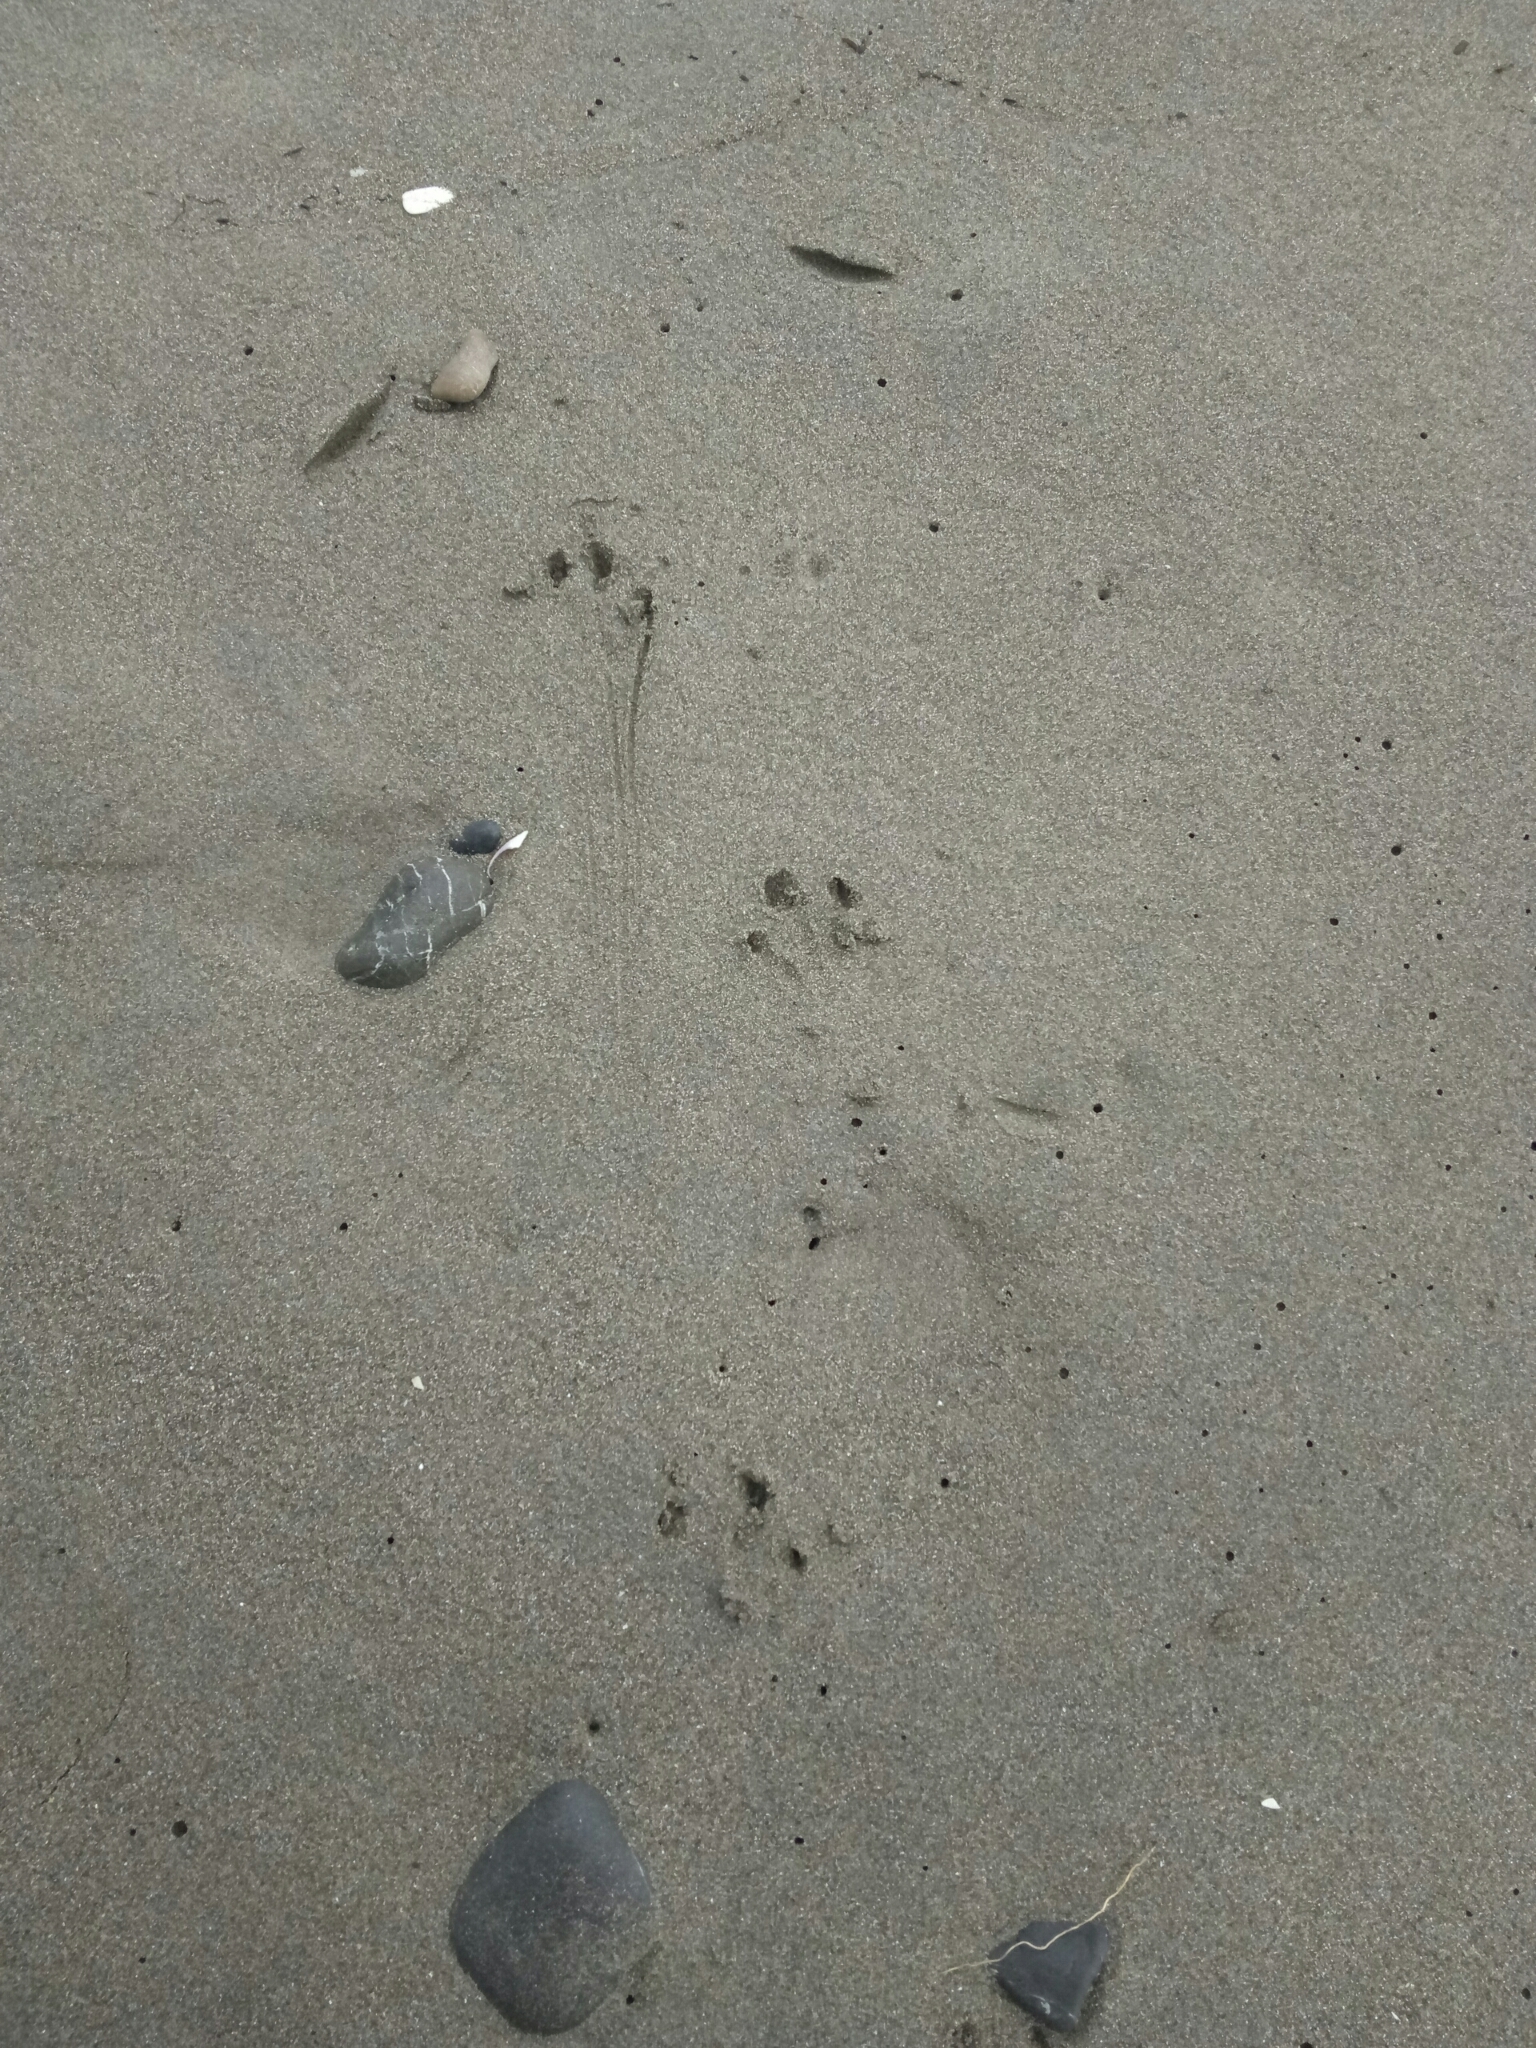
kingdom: Animalia
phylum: Chordata
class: Aves
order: Sphenisciformes
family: Spheniscidae
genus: Eudyptula
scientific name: Eudyptula minor
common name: Little penguin
